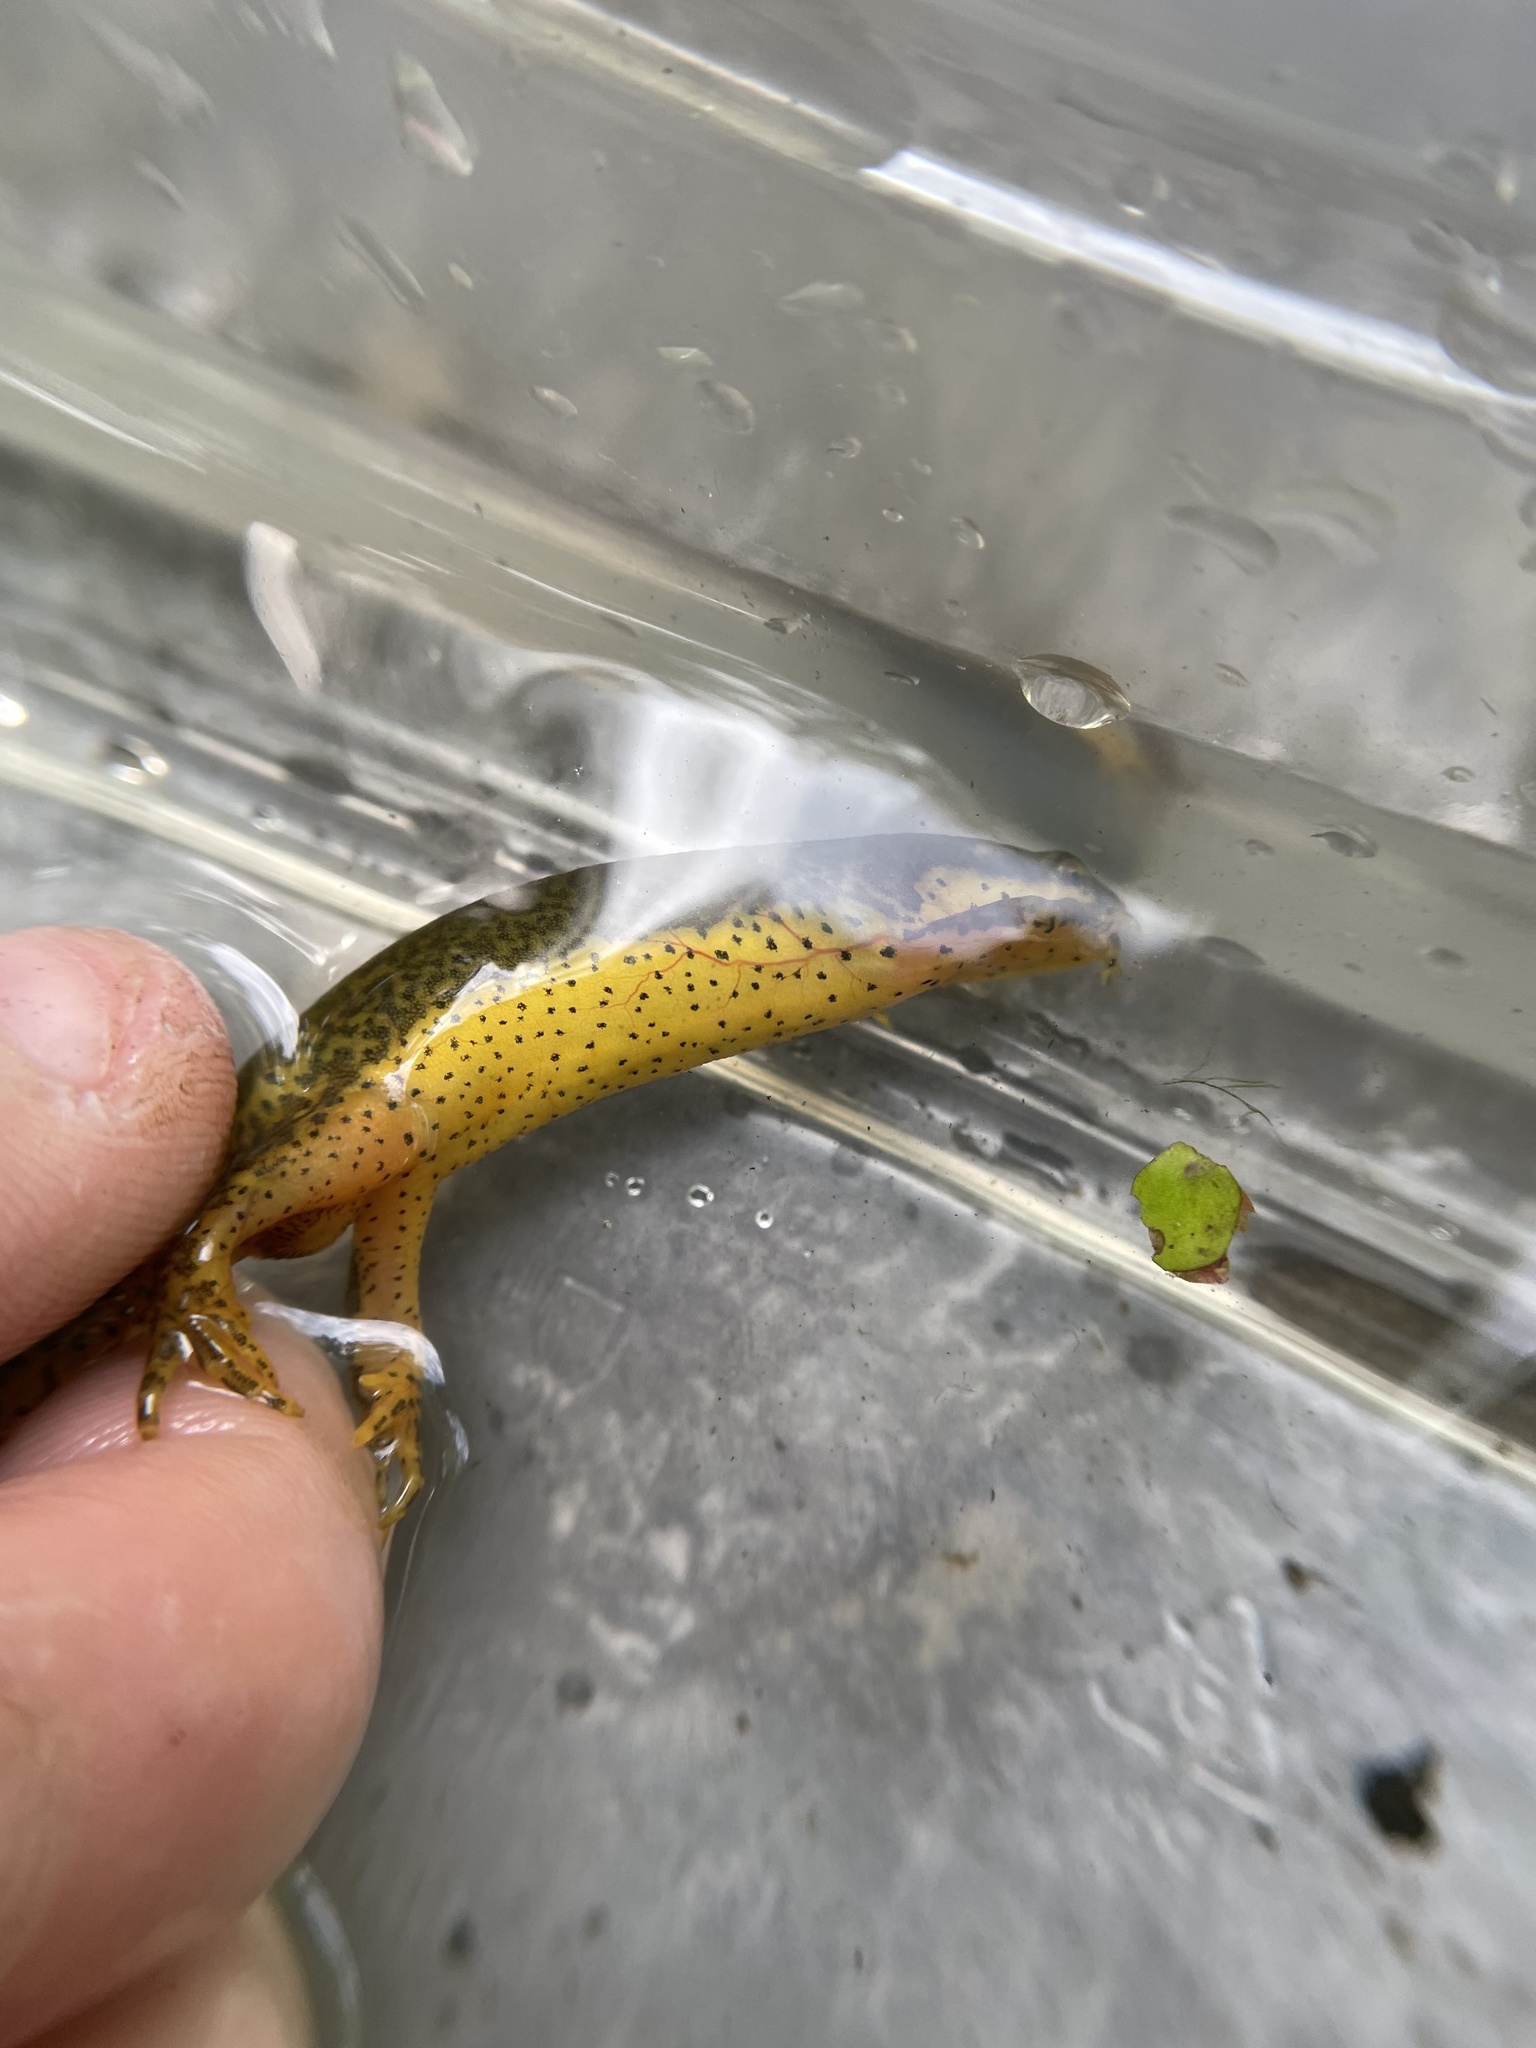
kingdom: Animalia
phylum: Chordata
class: Amphibia
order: Caudata
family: Salamandridae
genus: Notophthalmus
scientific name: Notophthalmus viridescens
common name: Eastern newt
